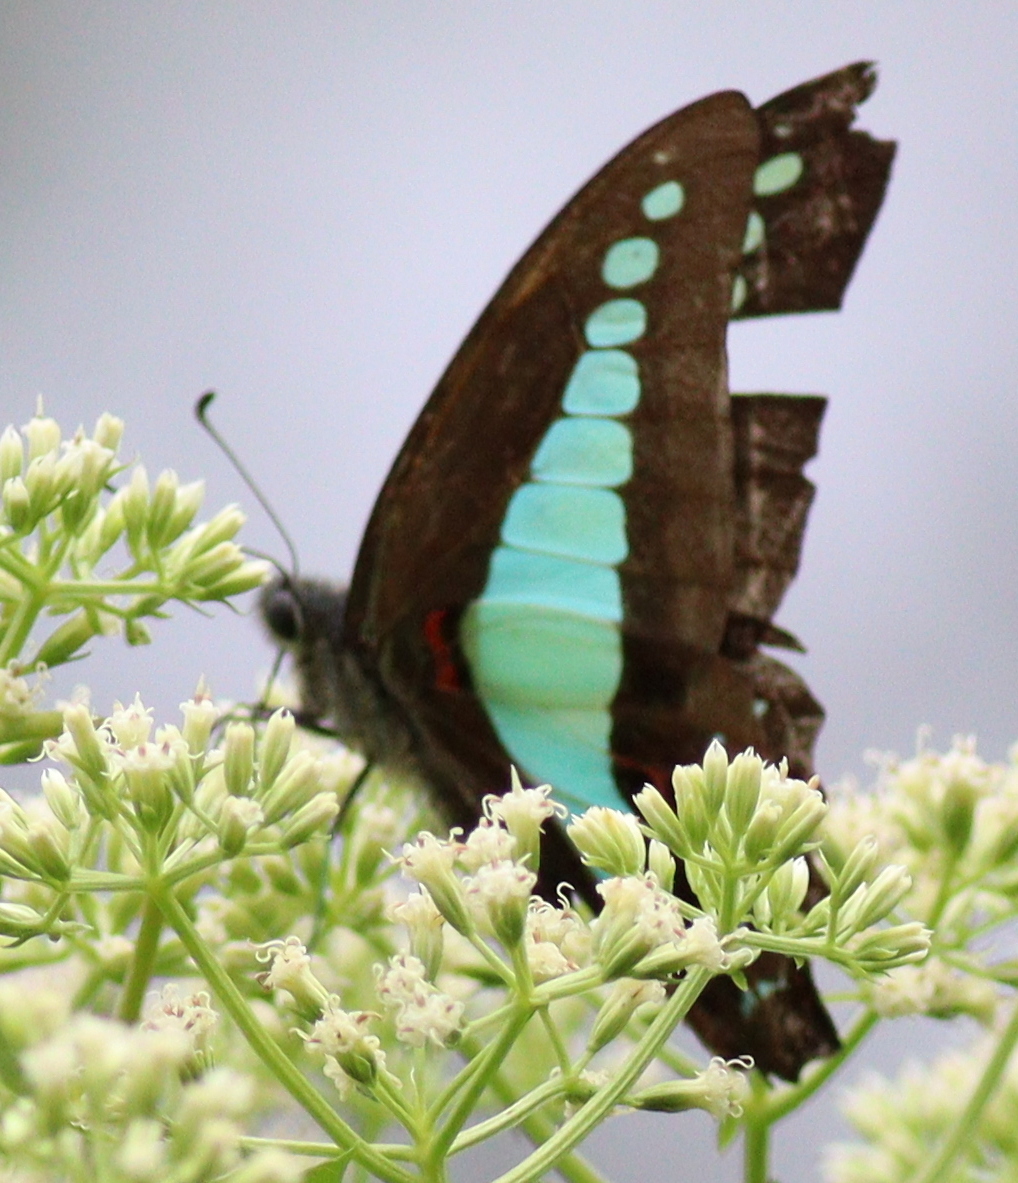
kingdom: Fungi
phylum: Ascomycota
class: Sordariomycetes
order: Microascales
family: Microascaceae
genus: Graphium
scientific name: Graphium sarpedon
